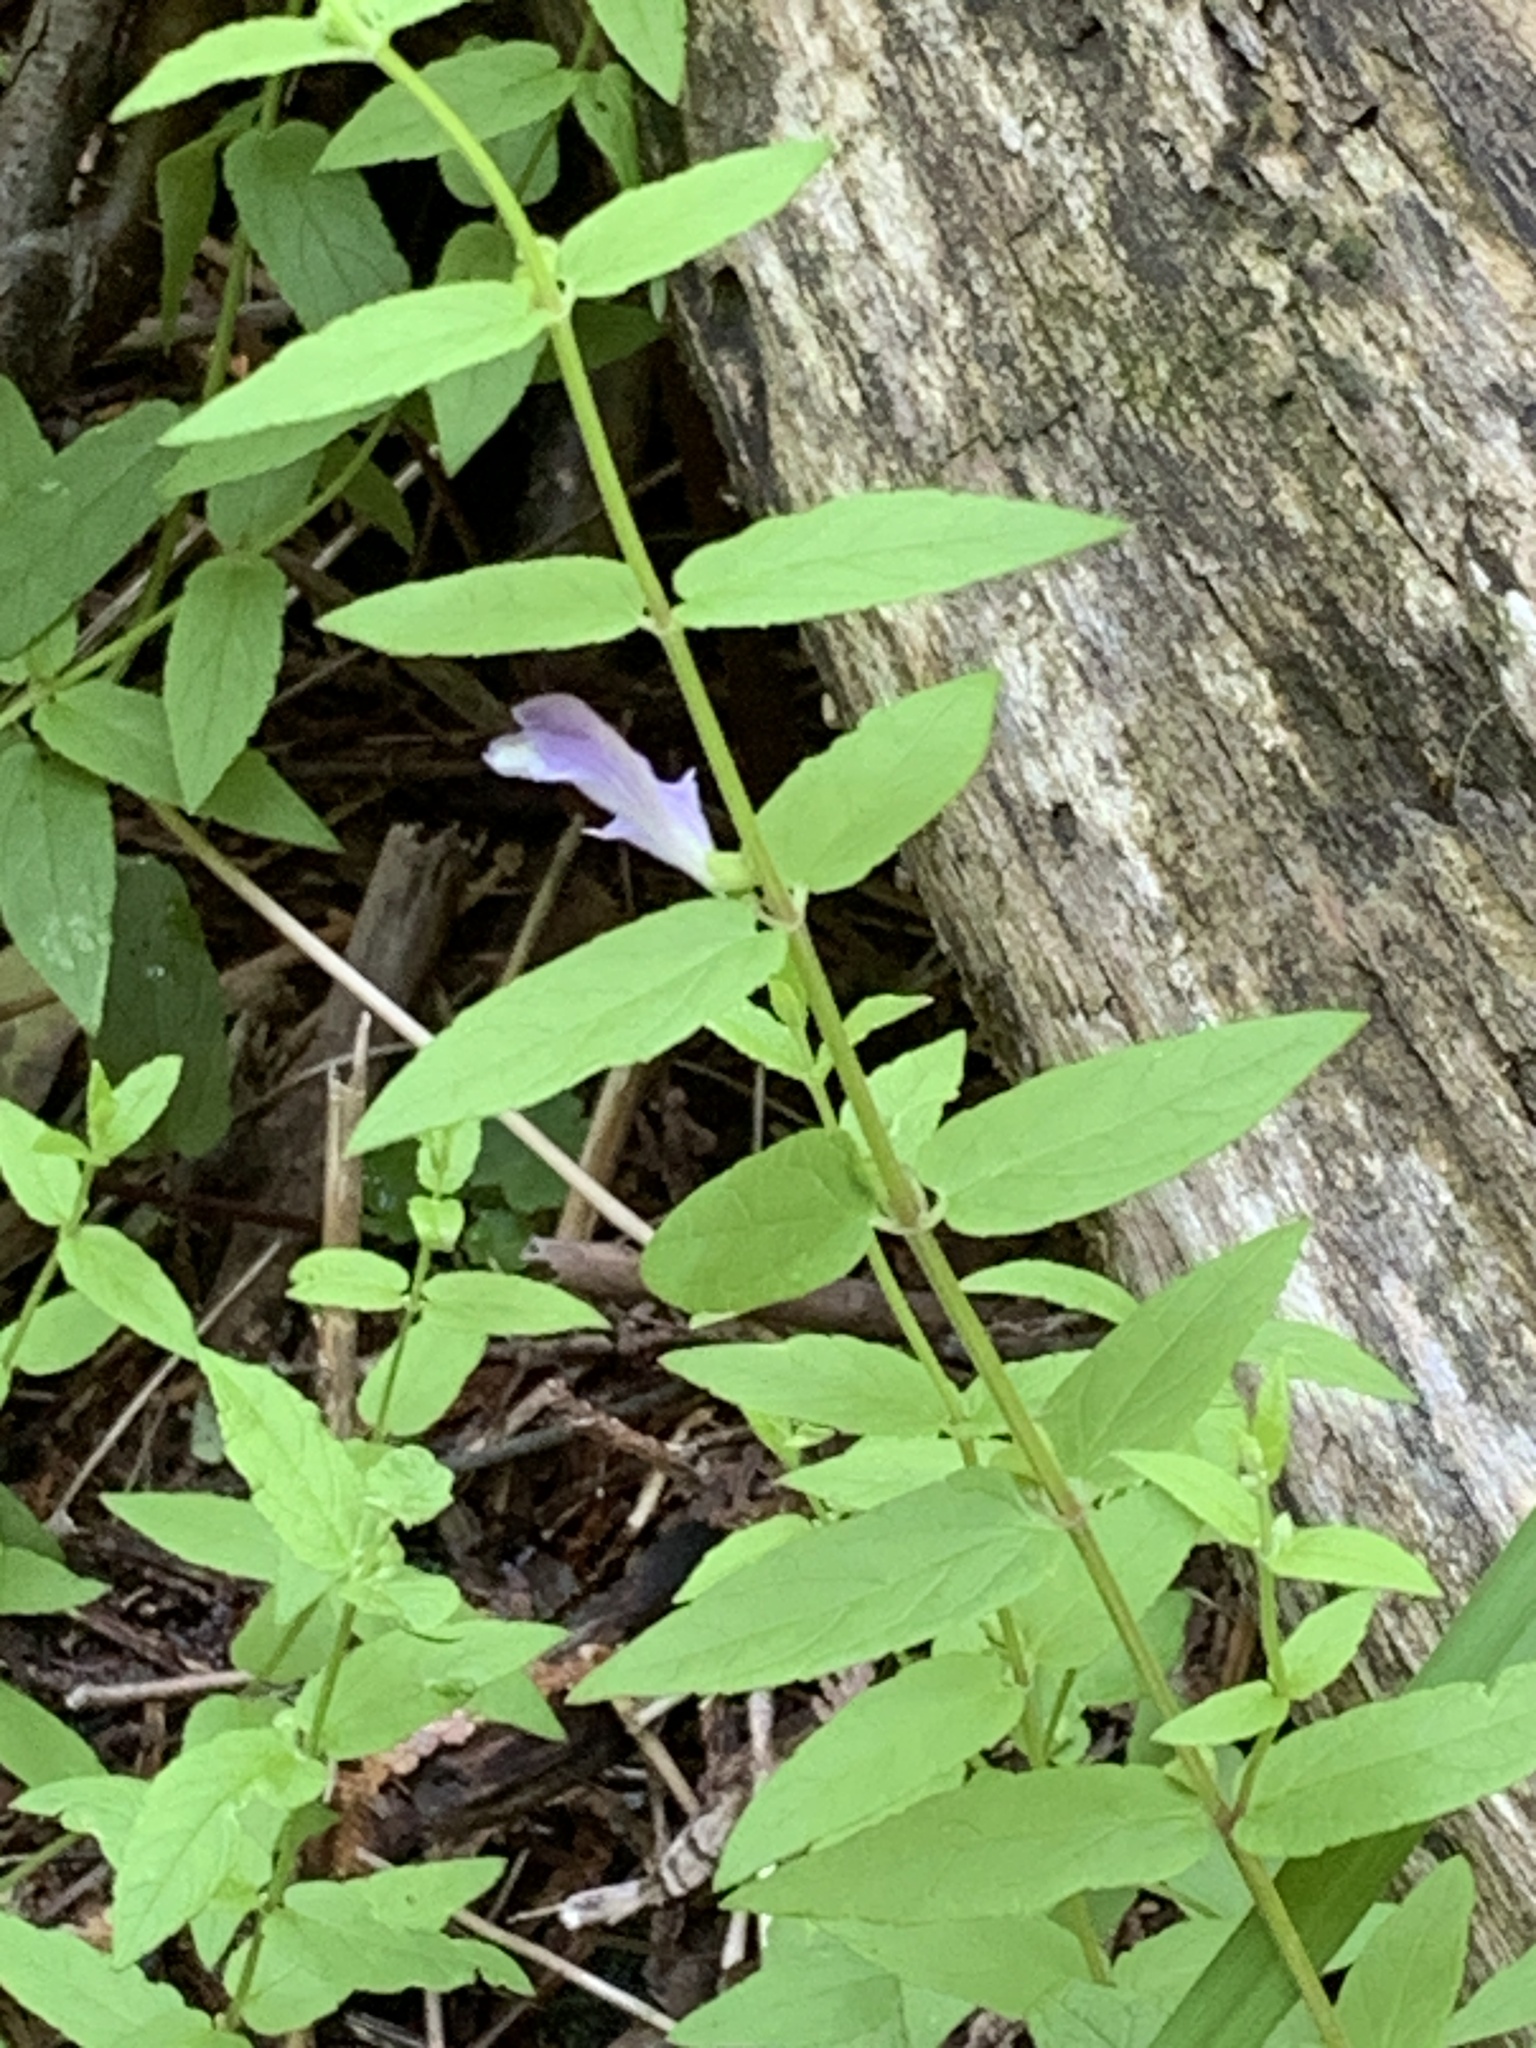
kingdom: Plantae
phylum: Tracheophyta
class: Magnoliopsida
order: Lamiales
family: Lamiaceae
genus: Scutellaria
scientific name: Scutellaria galericulata
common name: Skullcap
